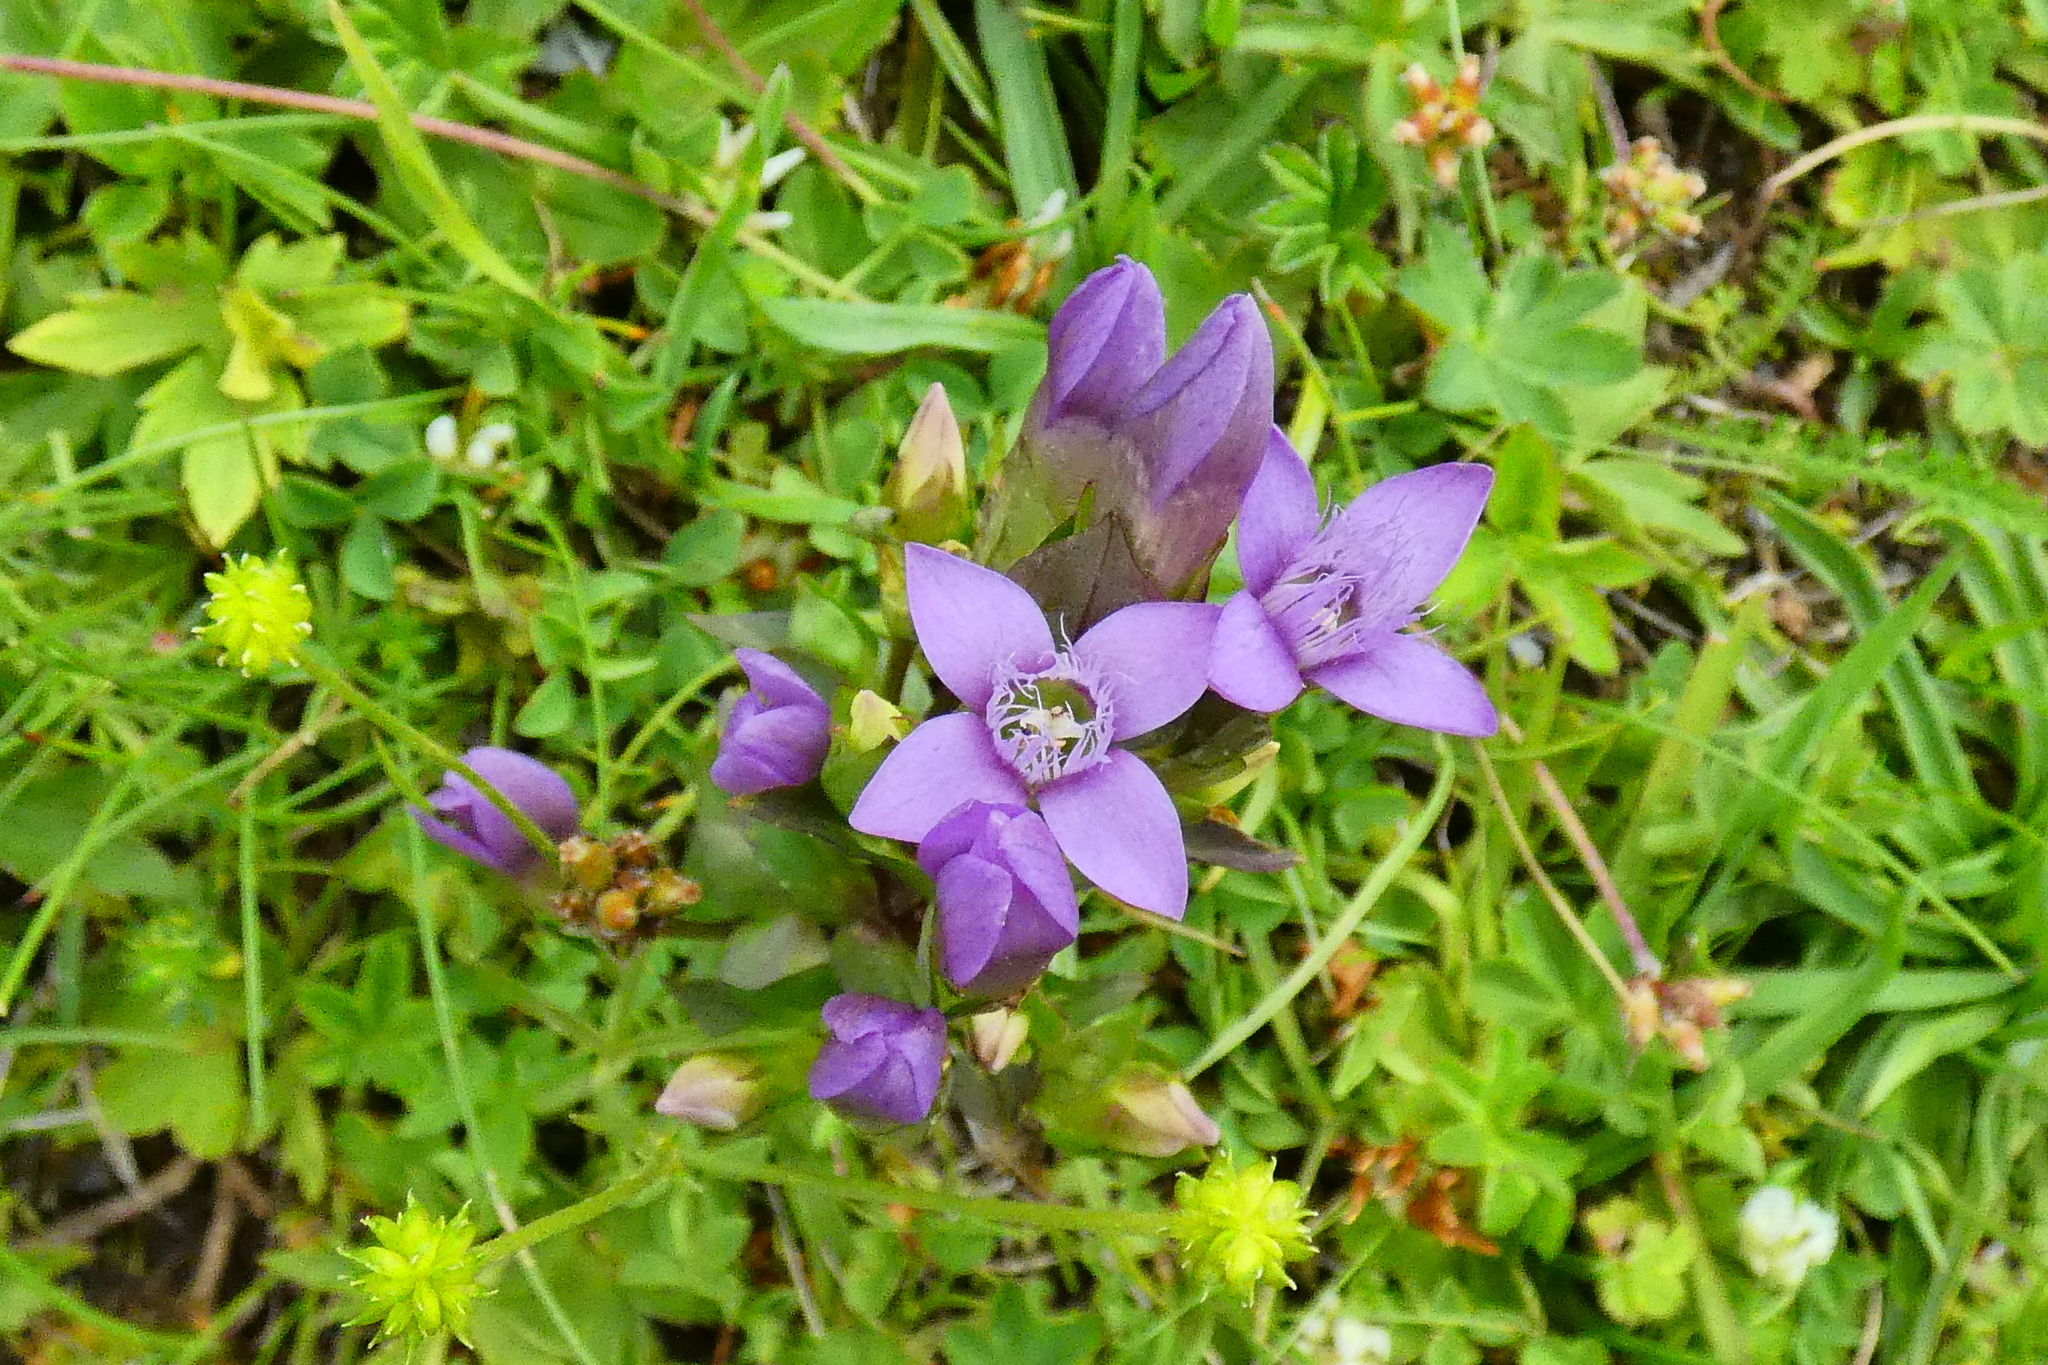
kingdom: Plantae
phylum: Tracheophyta
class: Magnoliopsida
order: Gentianales
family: Gentianaceae
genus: Gentianella
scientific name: Gentianella campestris
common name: Field gentian
